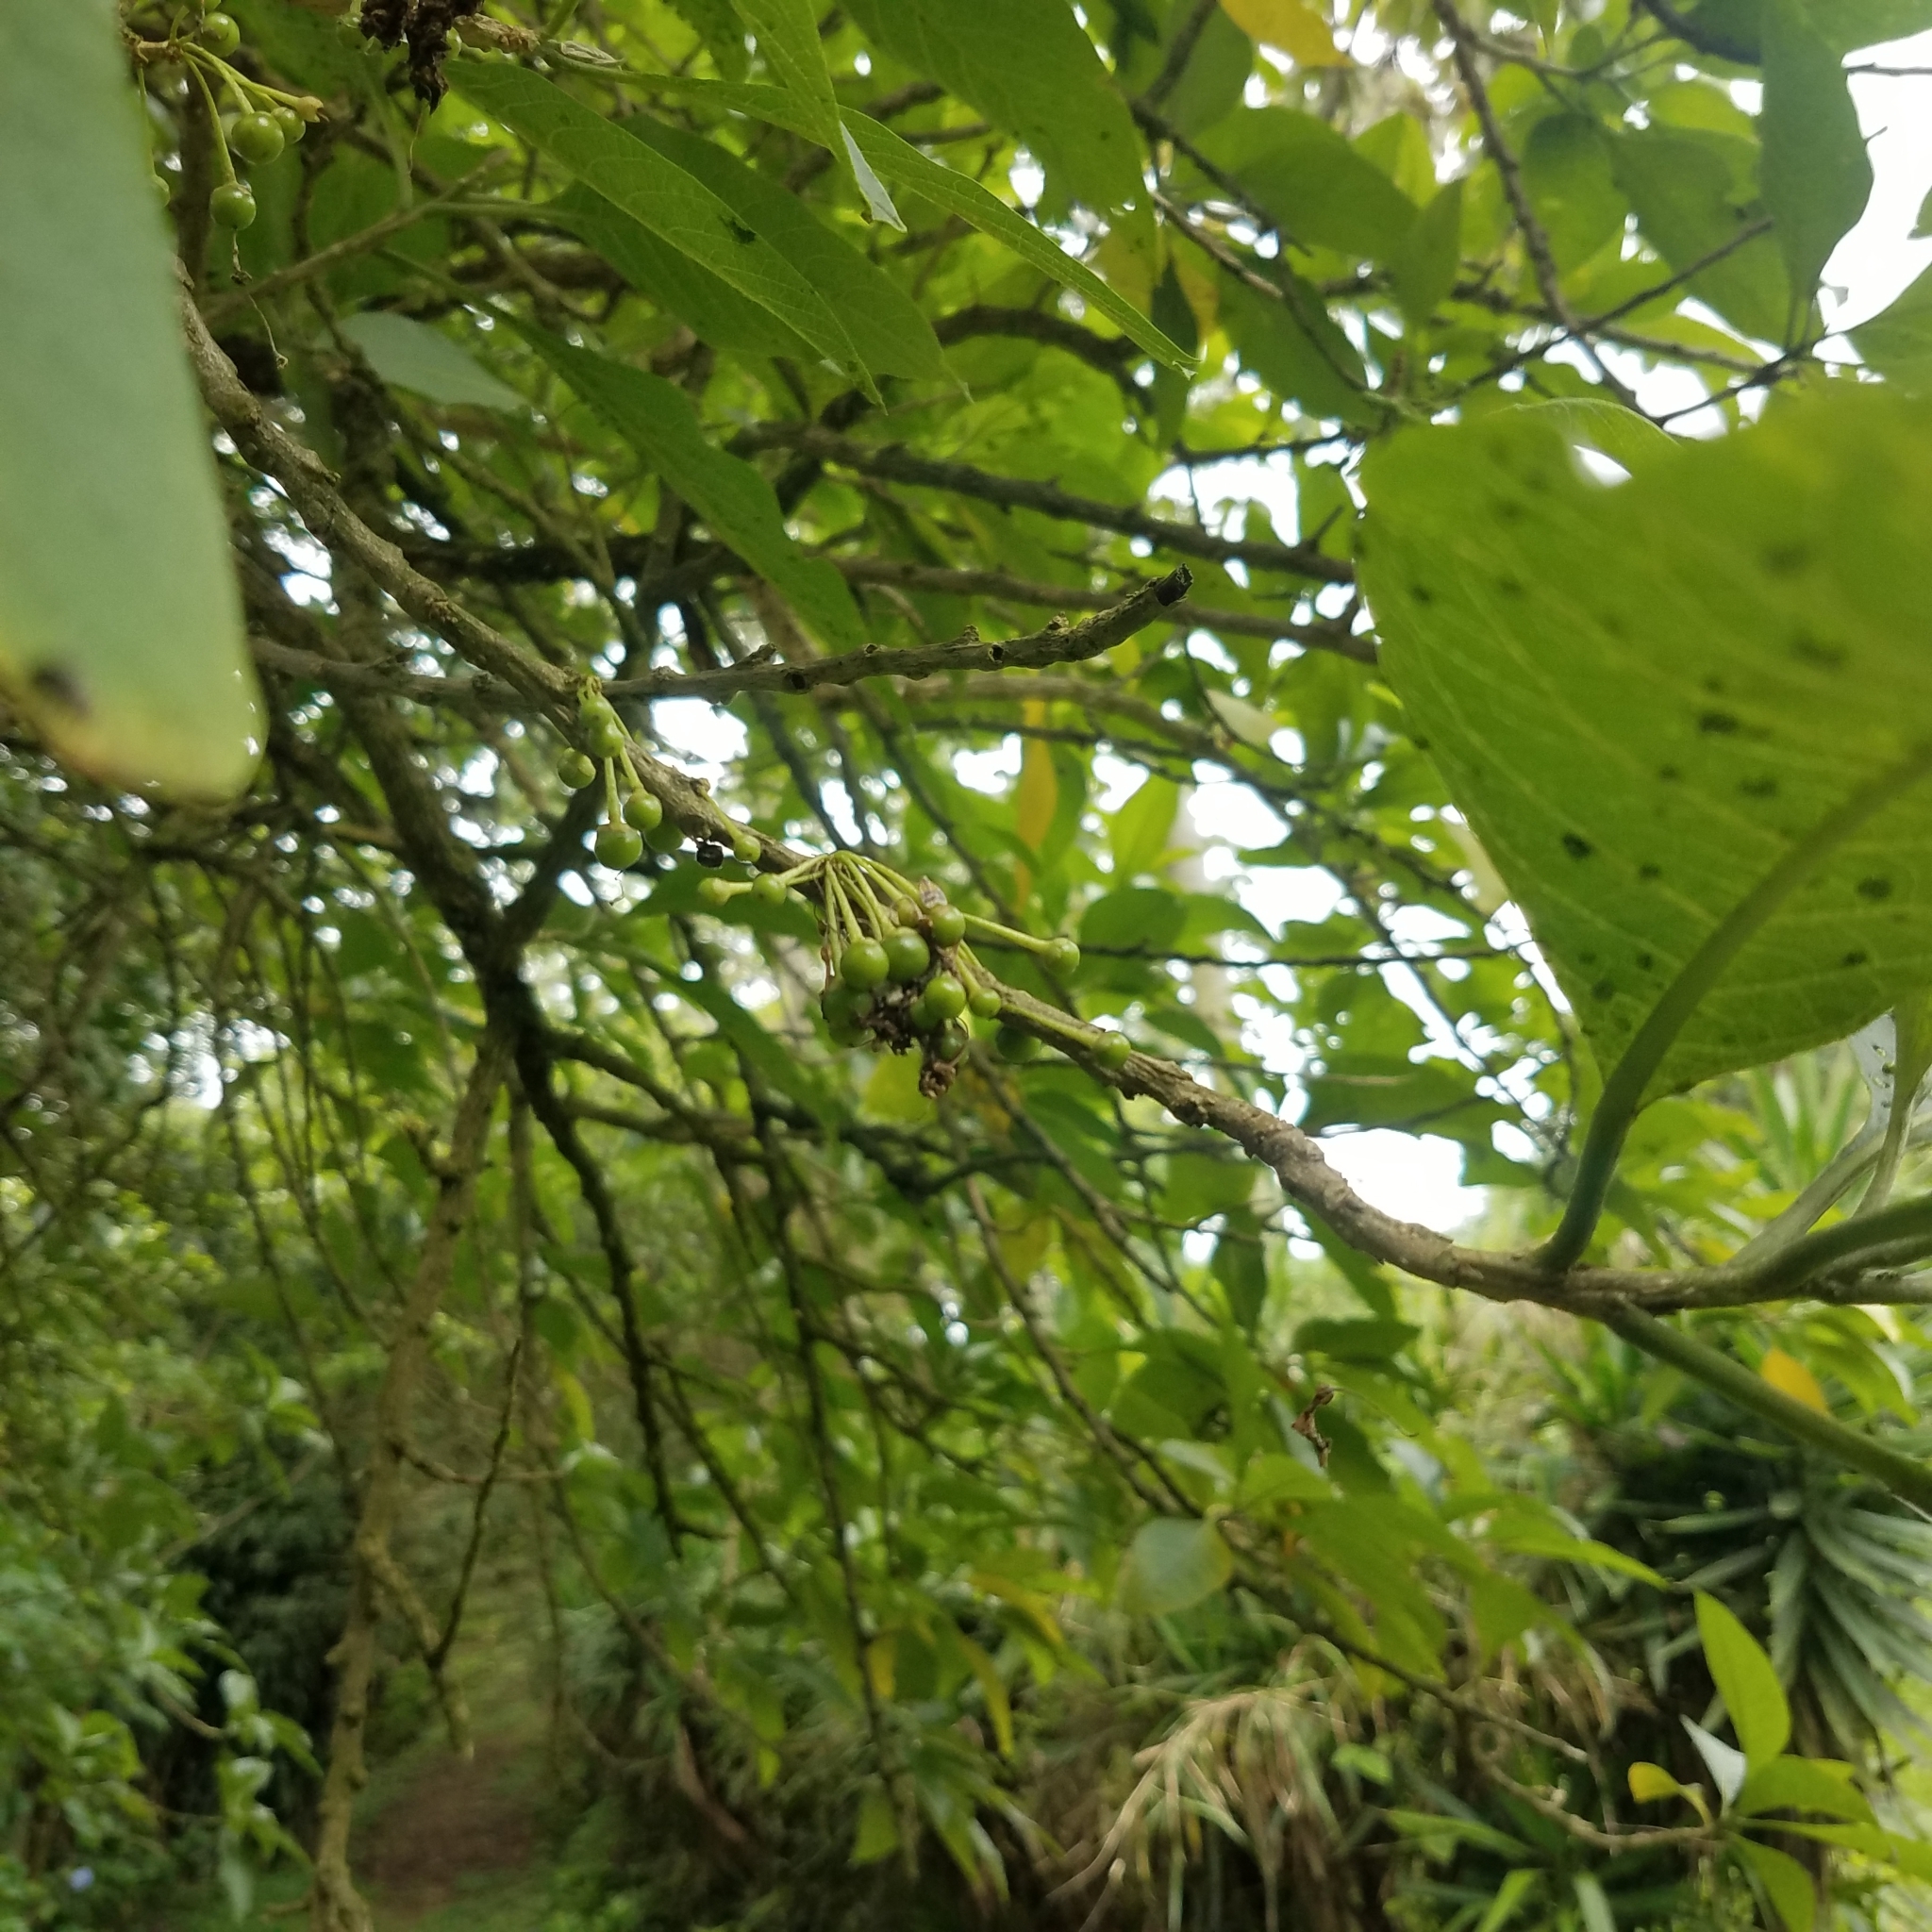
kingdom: Plantae
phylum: Tracheophyta
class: Magnoliopsida
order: Solanales
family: Solanaceae
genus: Iochroma
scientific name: Iochroma arborescens
